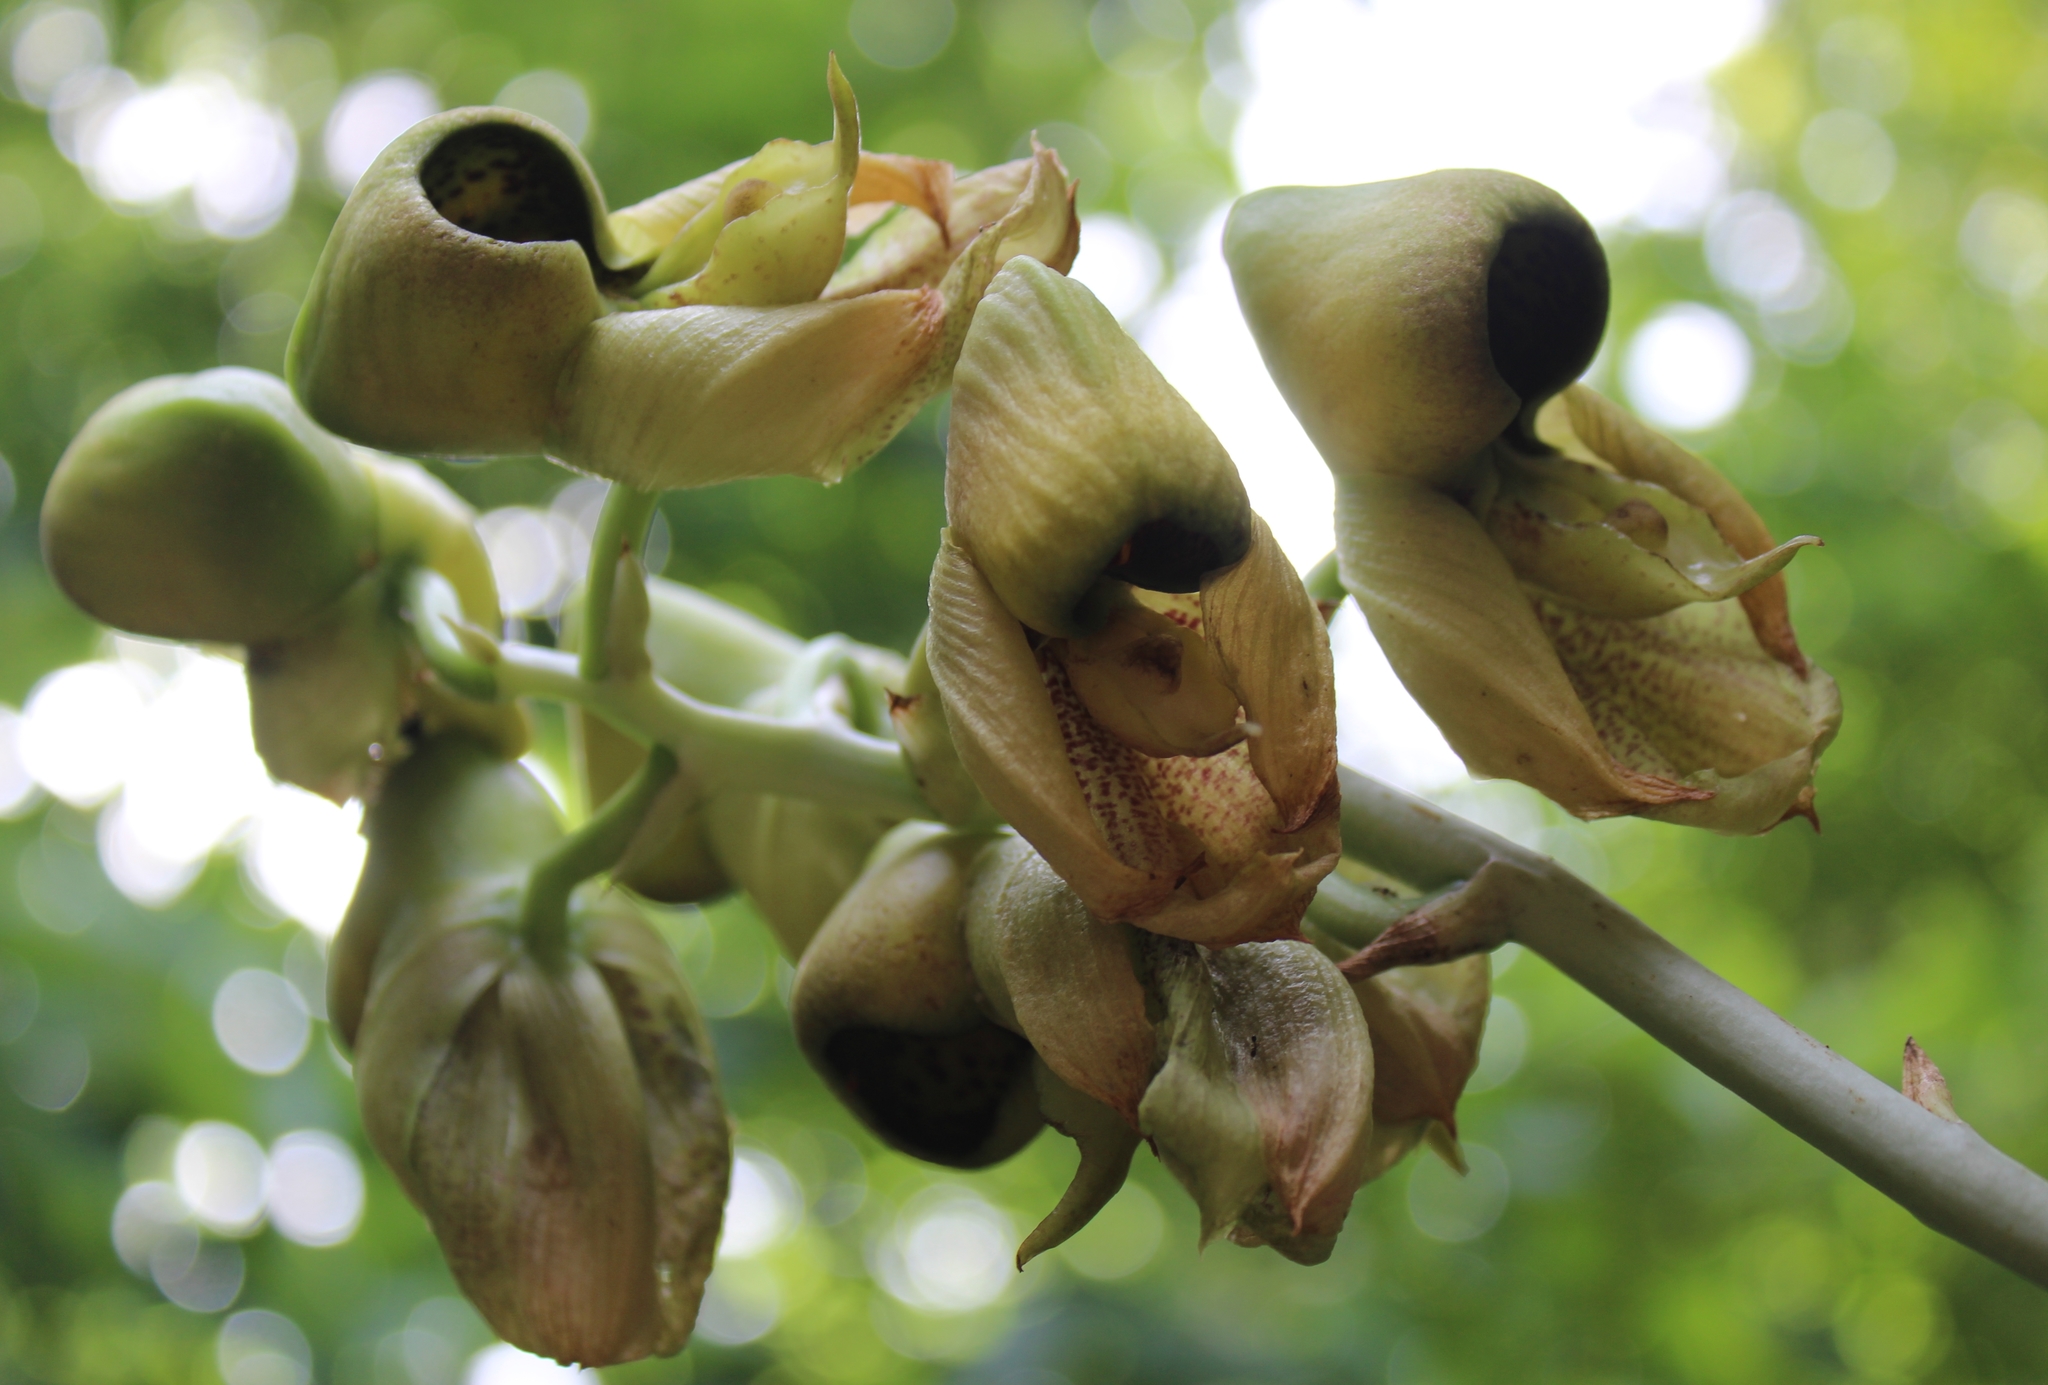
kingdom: Plantae
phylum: Tracheophyta
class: Liliopsida
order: Asparagales
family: Orchidaceae
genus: Catasetum
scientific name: Catasetum integerrimum
